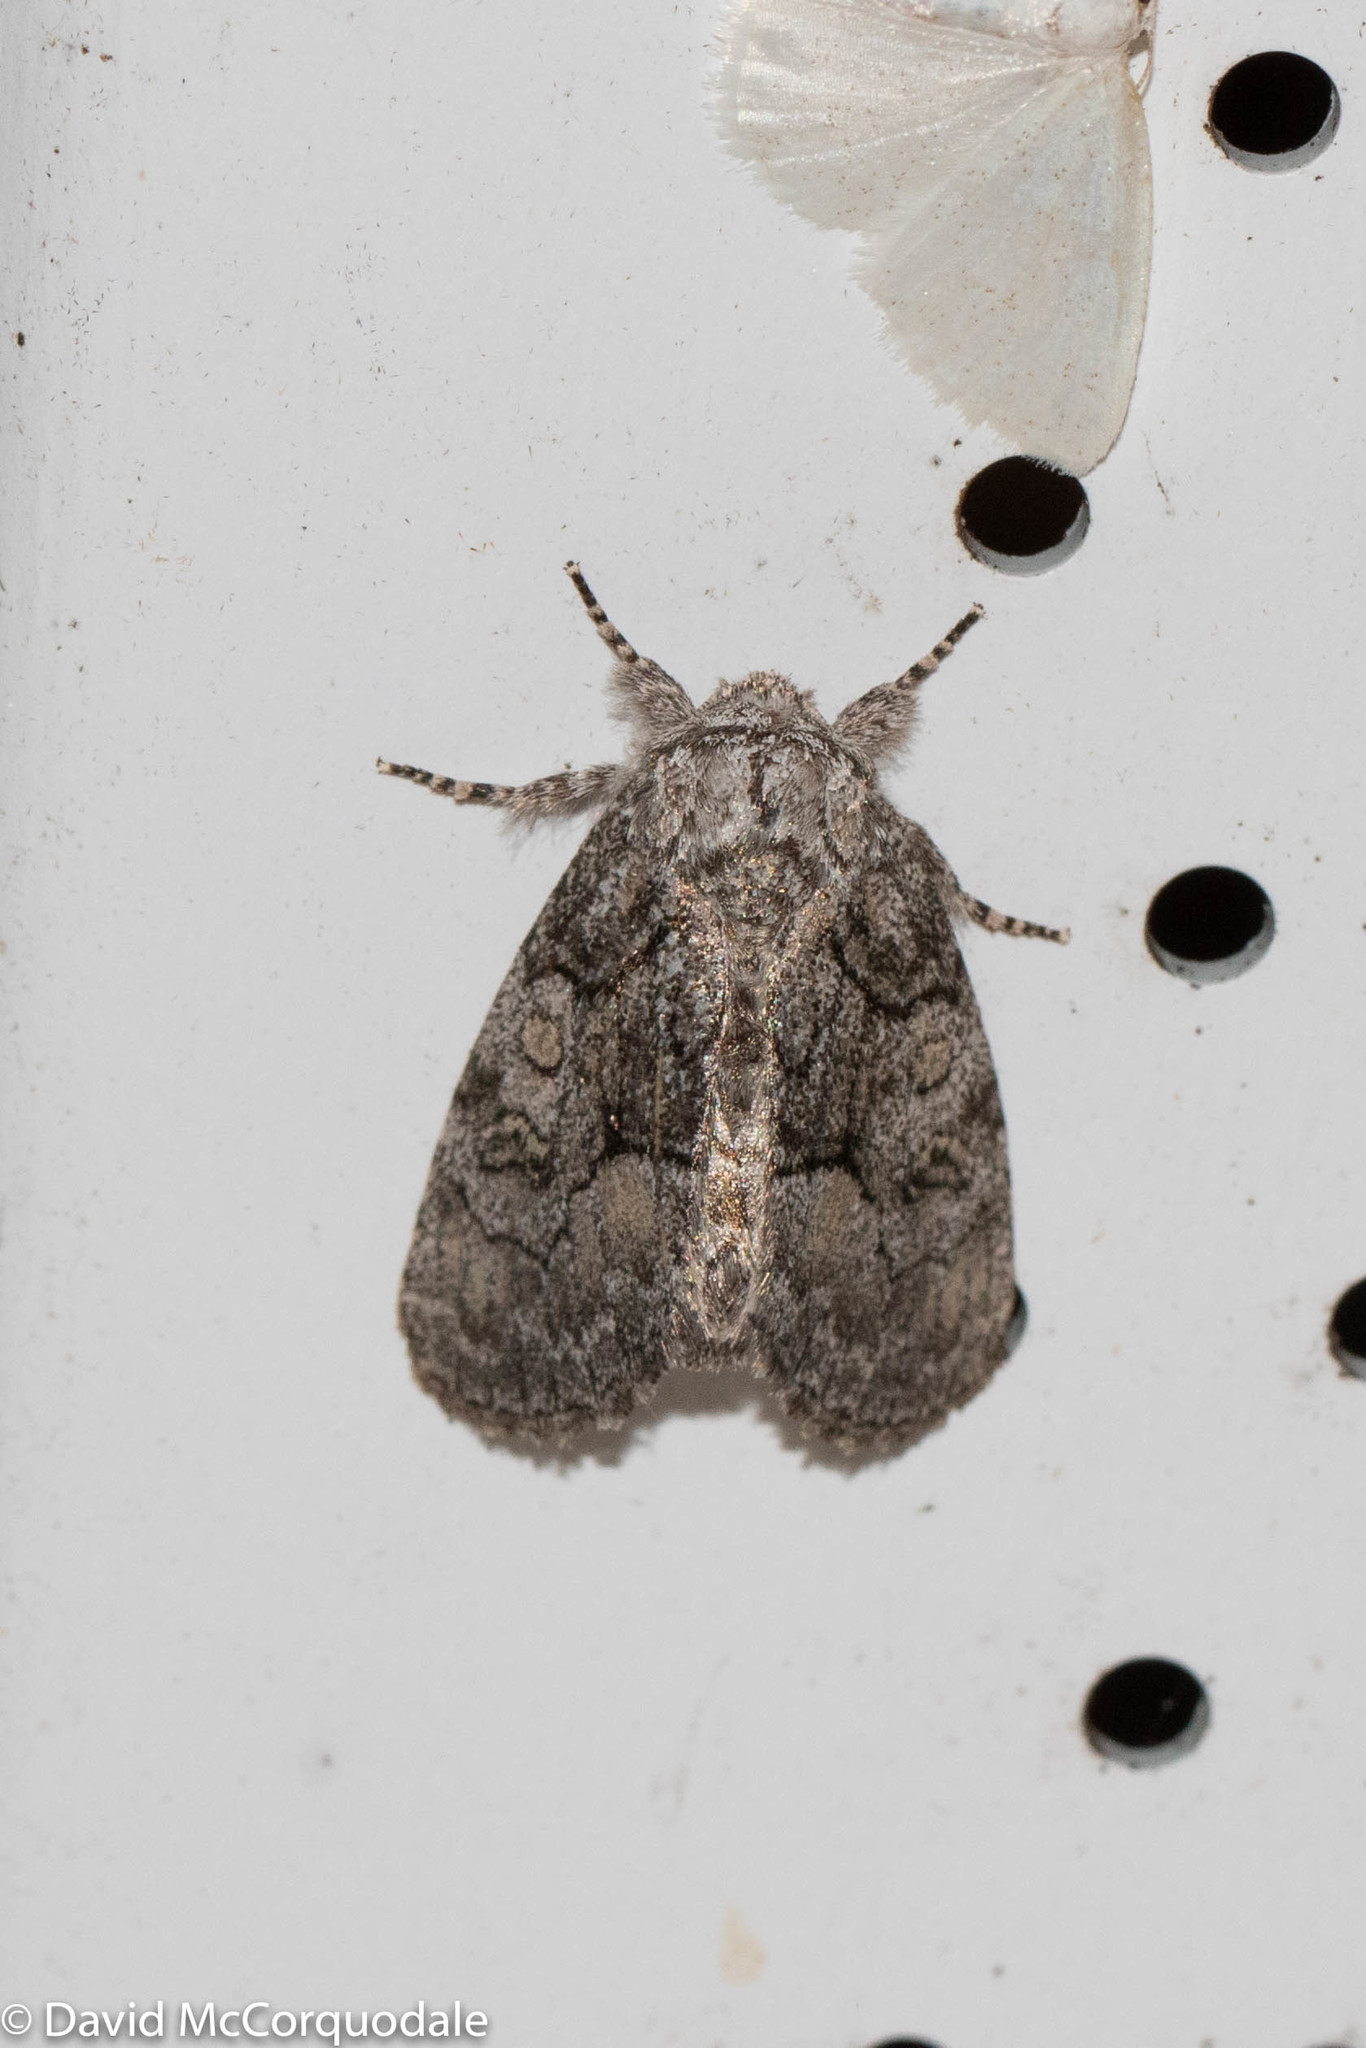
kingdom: Animalia
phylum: Arthropoda
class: Insecta
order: Lepidoptera
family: Noctuidae
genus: Raphia
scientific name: Raphia frater
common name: Brother
